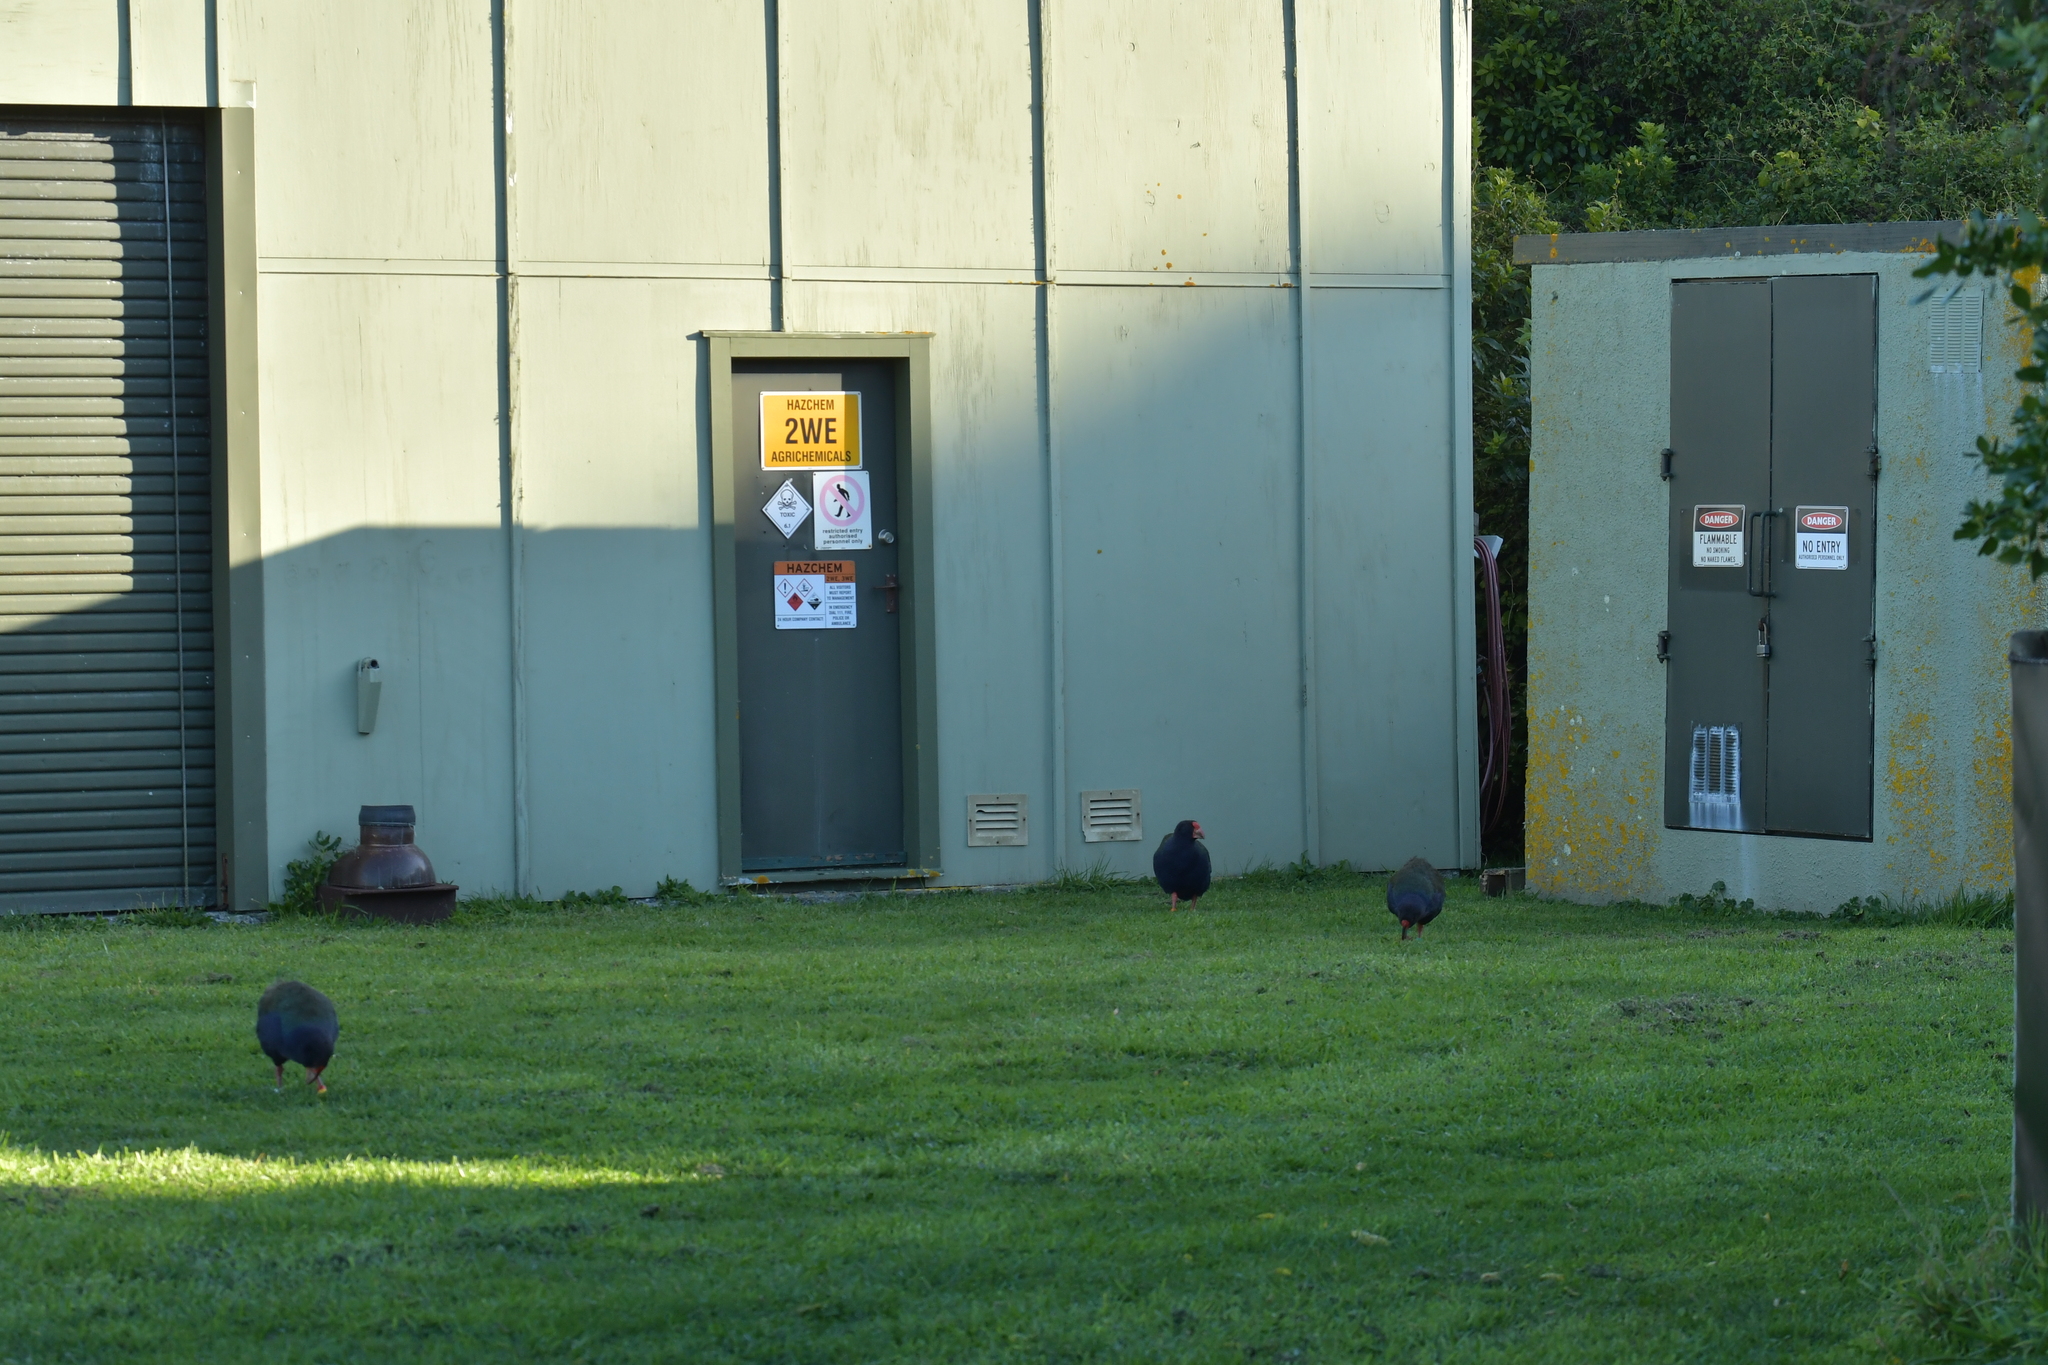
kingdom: Animalia
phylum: Chordata
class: Aves
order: Gruiformes
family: Rallidae
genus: Porphyrio
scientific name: Porphyrio hochstetteri
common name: South island takahe
